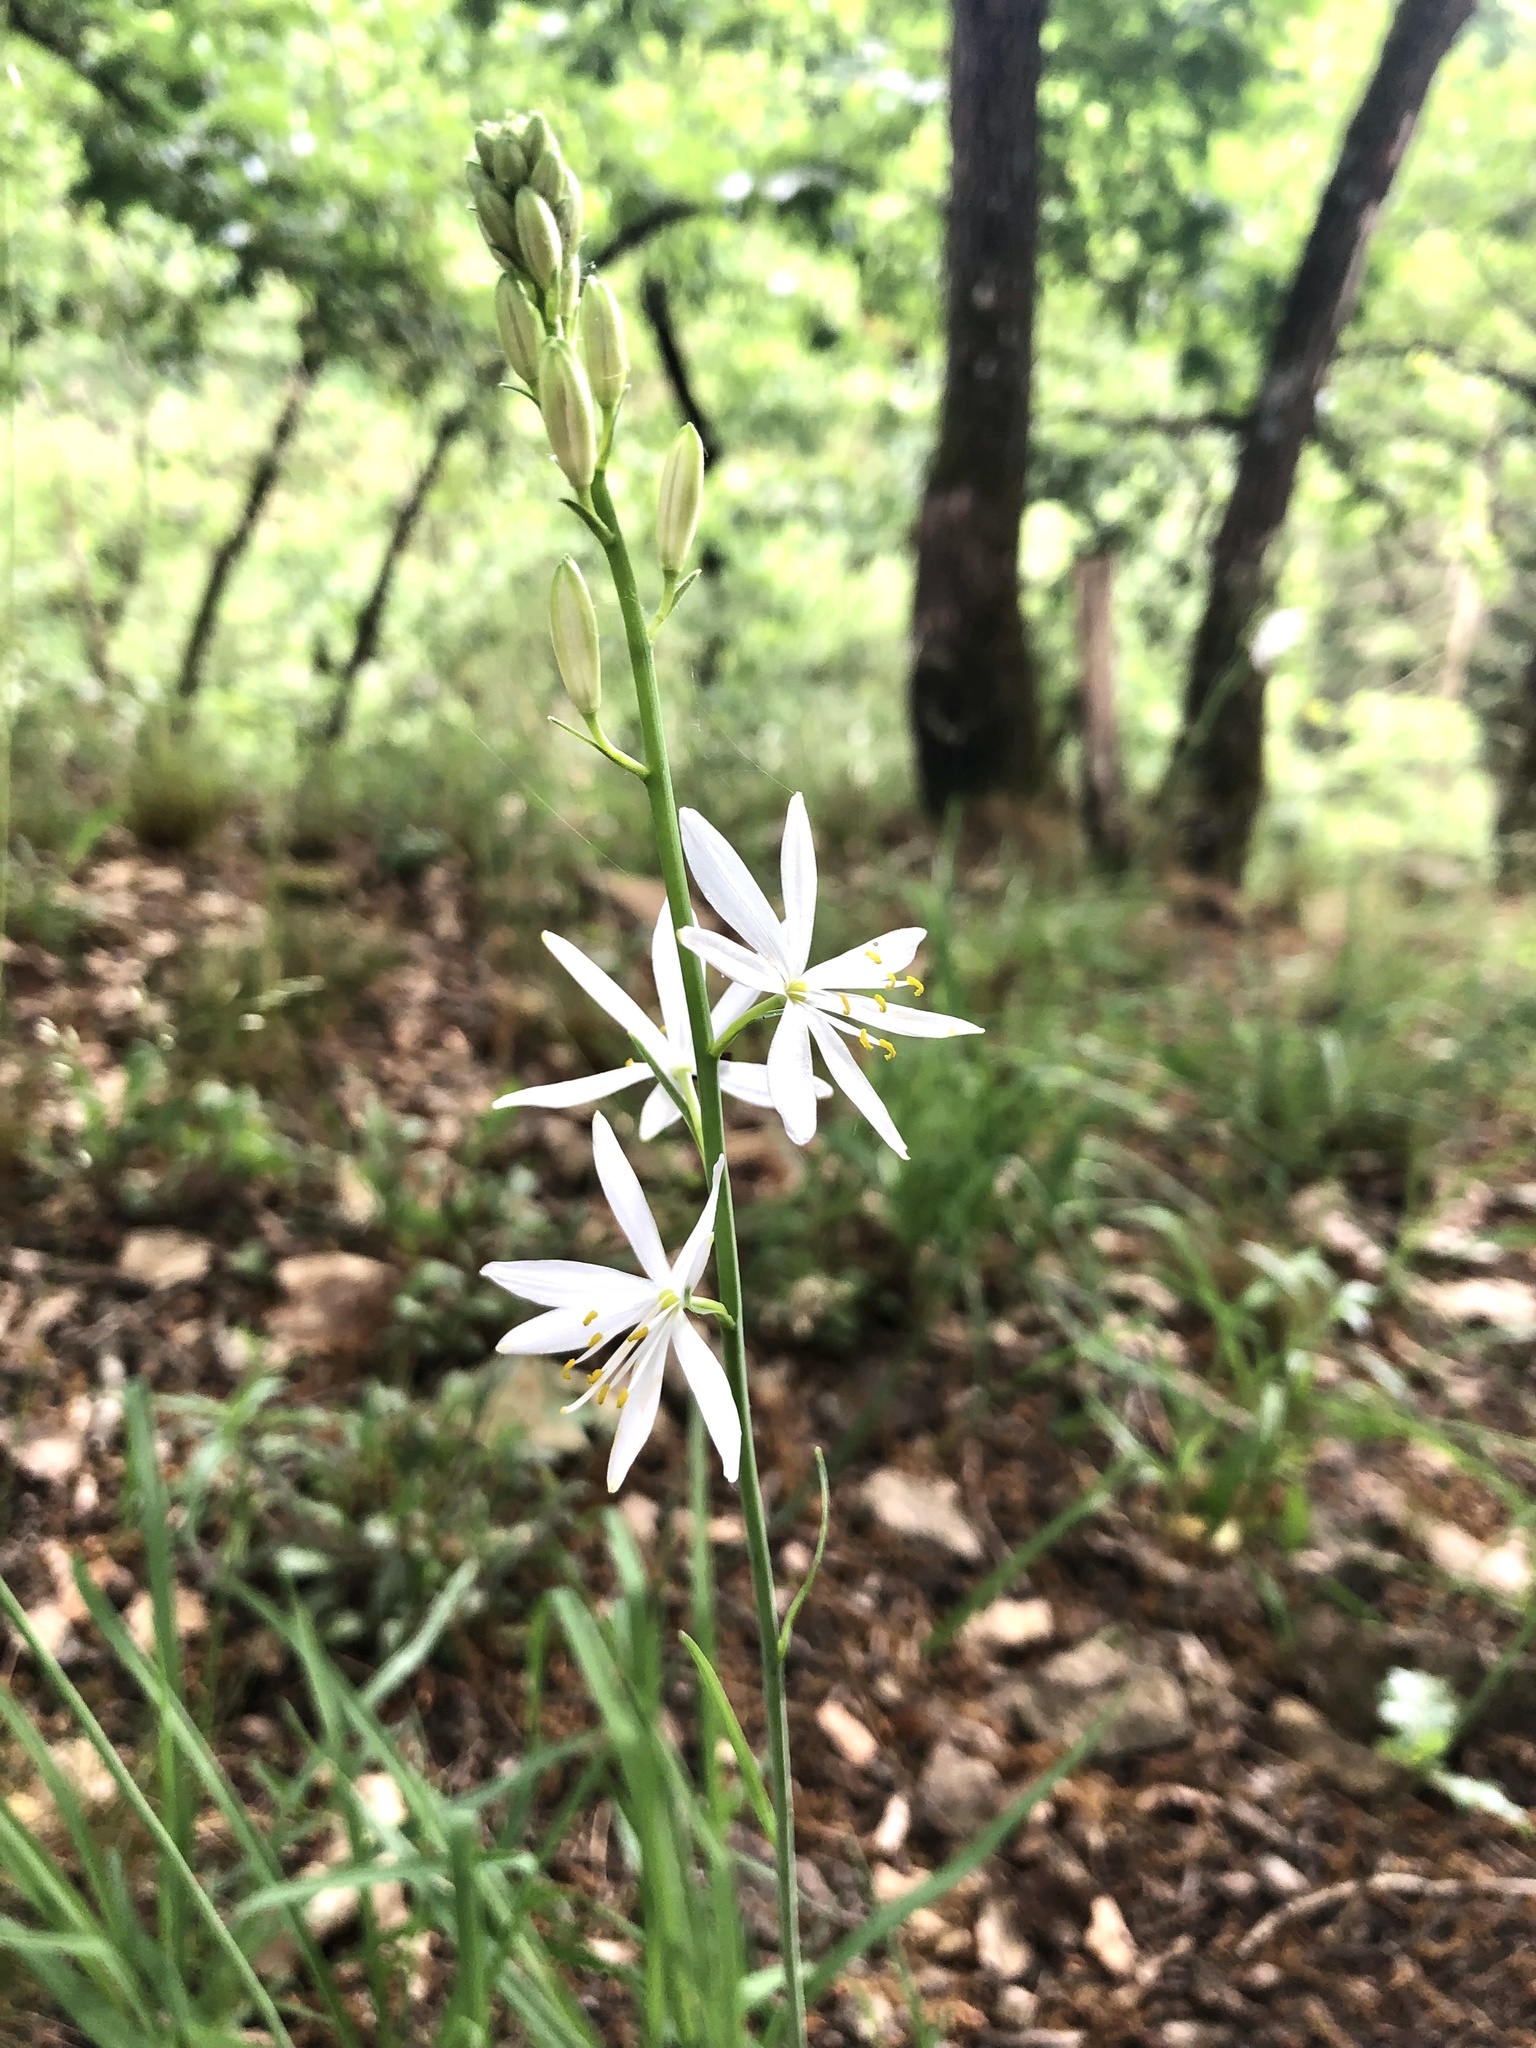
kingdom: Plantae
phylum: Tracheophyta
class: Liliopsida
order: Asparagales
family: Asparagaceae
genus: Anthericum
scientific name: Anthericum liliago
